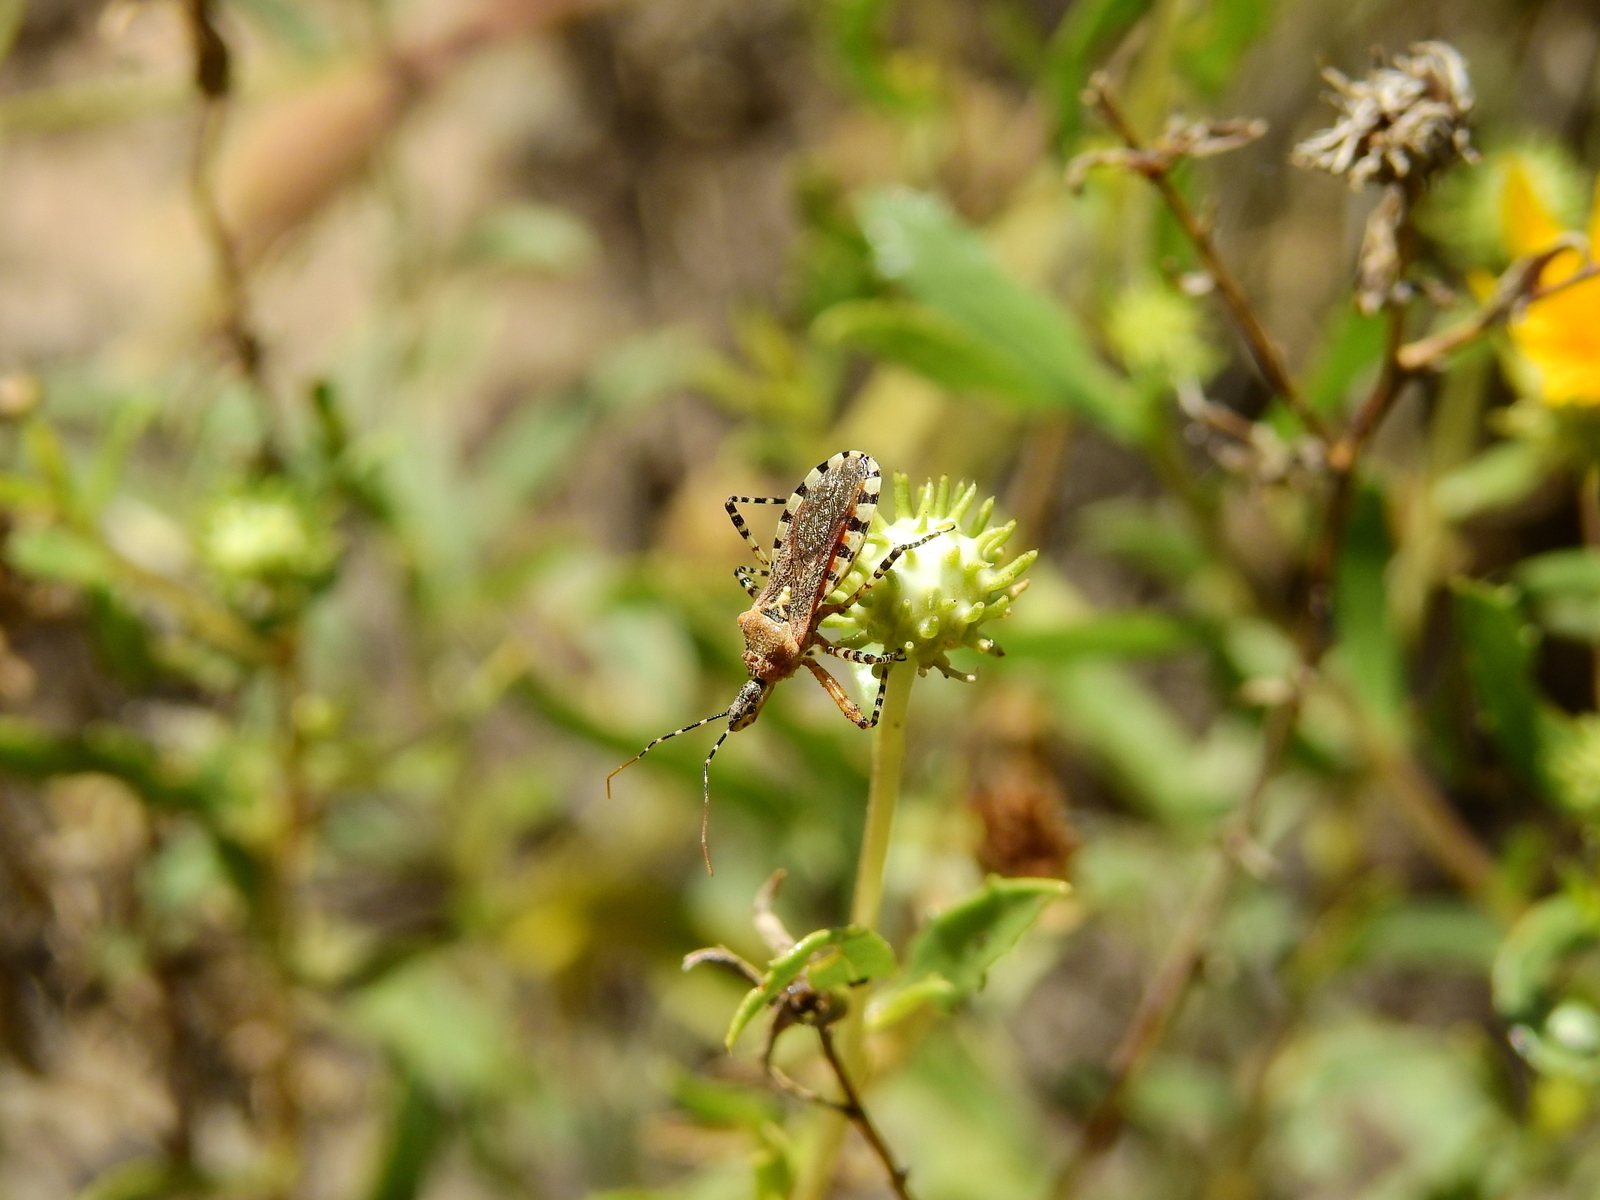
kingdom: Animalia
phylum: Arthropoda
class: Insecta
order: Hemiptera
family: Reduviidae
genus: Cosmoclopius
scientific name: Cosmoclopius nigroannulatus
